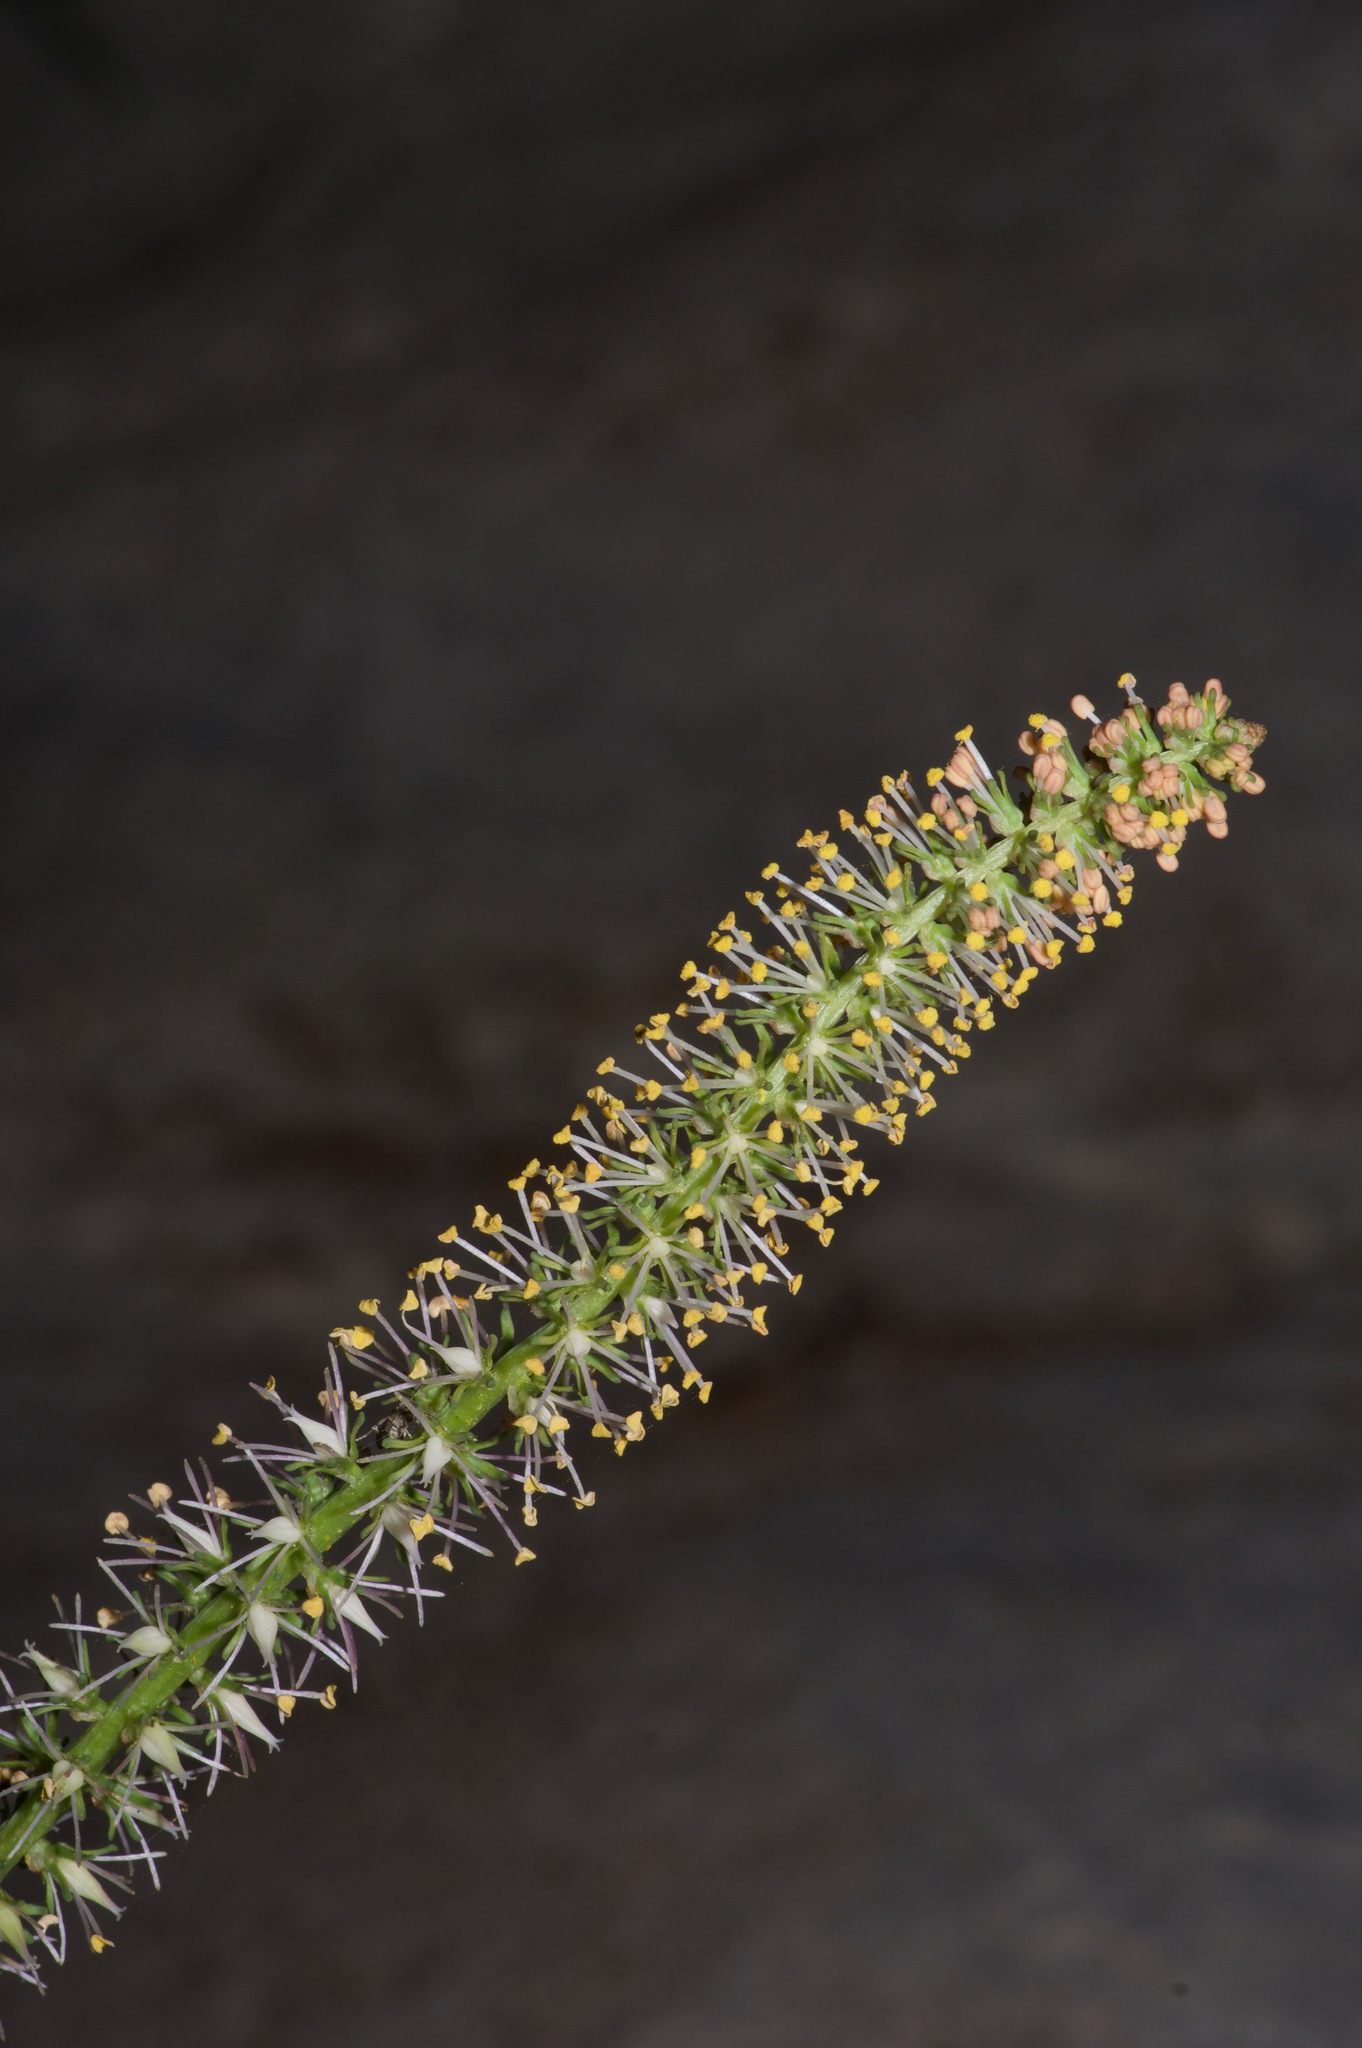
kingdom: Plantae
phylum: Tracheophyta
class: Liliopsida
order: Liliales
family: Melanthiaceae
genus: Schoenocaulon
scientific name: Schoenocaulon texanum
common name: Texas feather-shank
